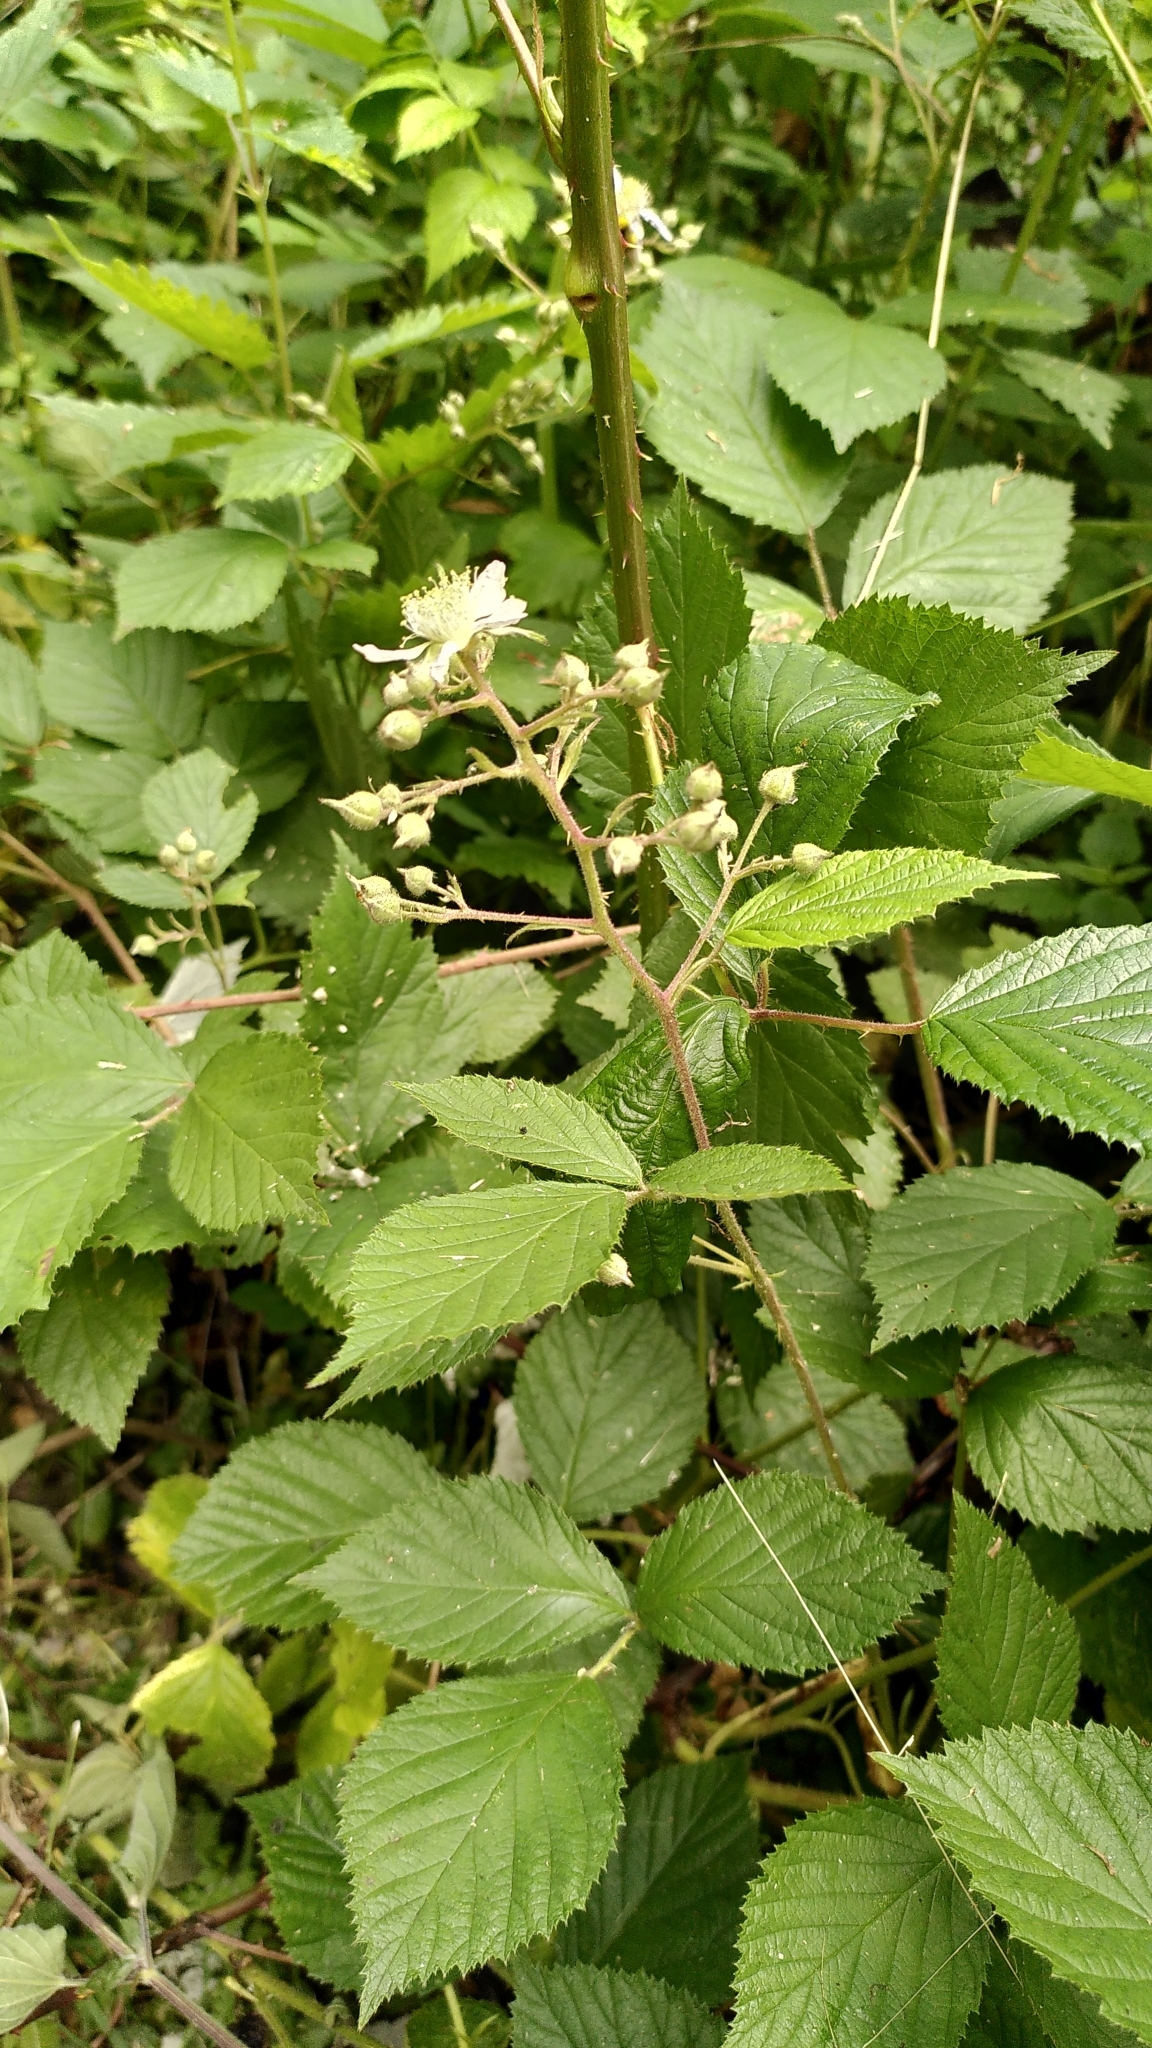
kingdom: Plantae
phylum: Tracheophyta
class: Magnoliopsida
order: Rosales
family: Rosaceae
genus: Rubus
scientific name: Rubus rudis
